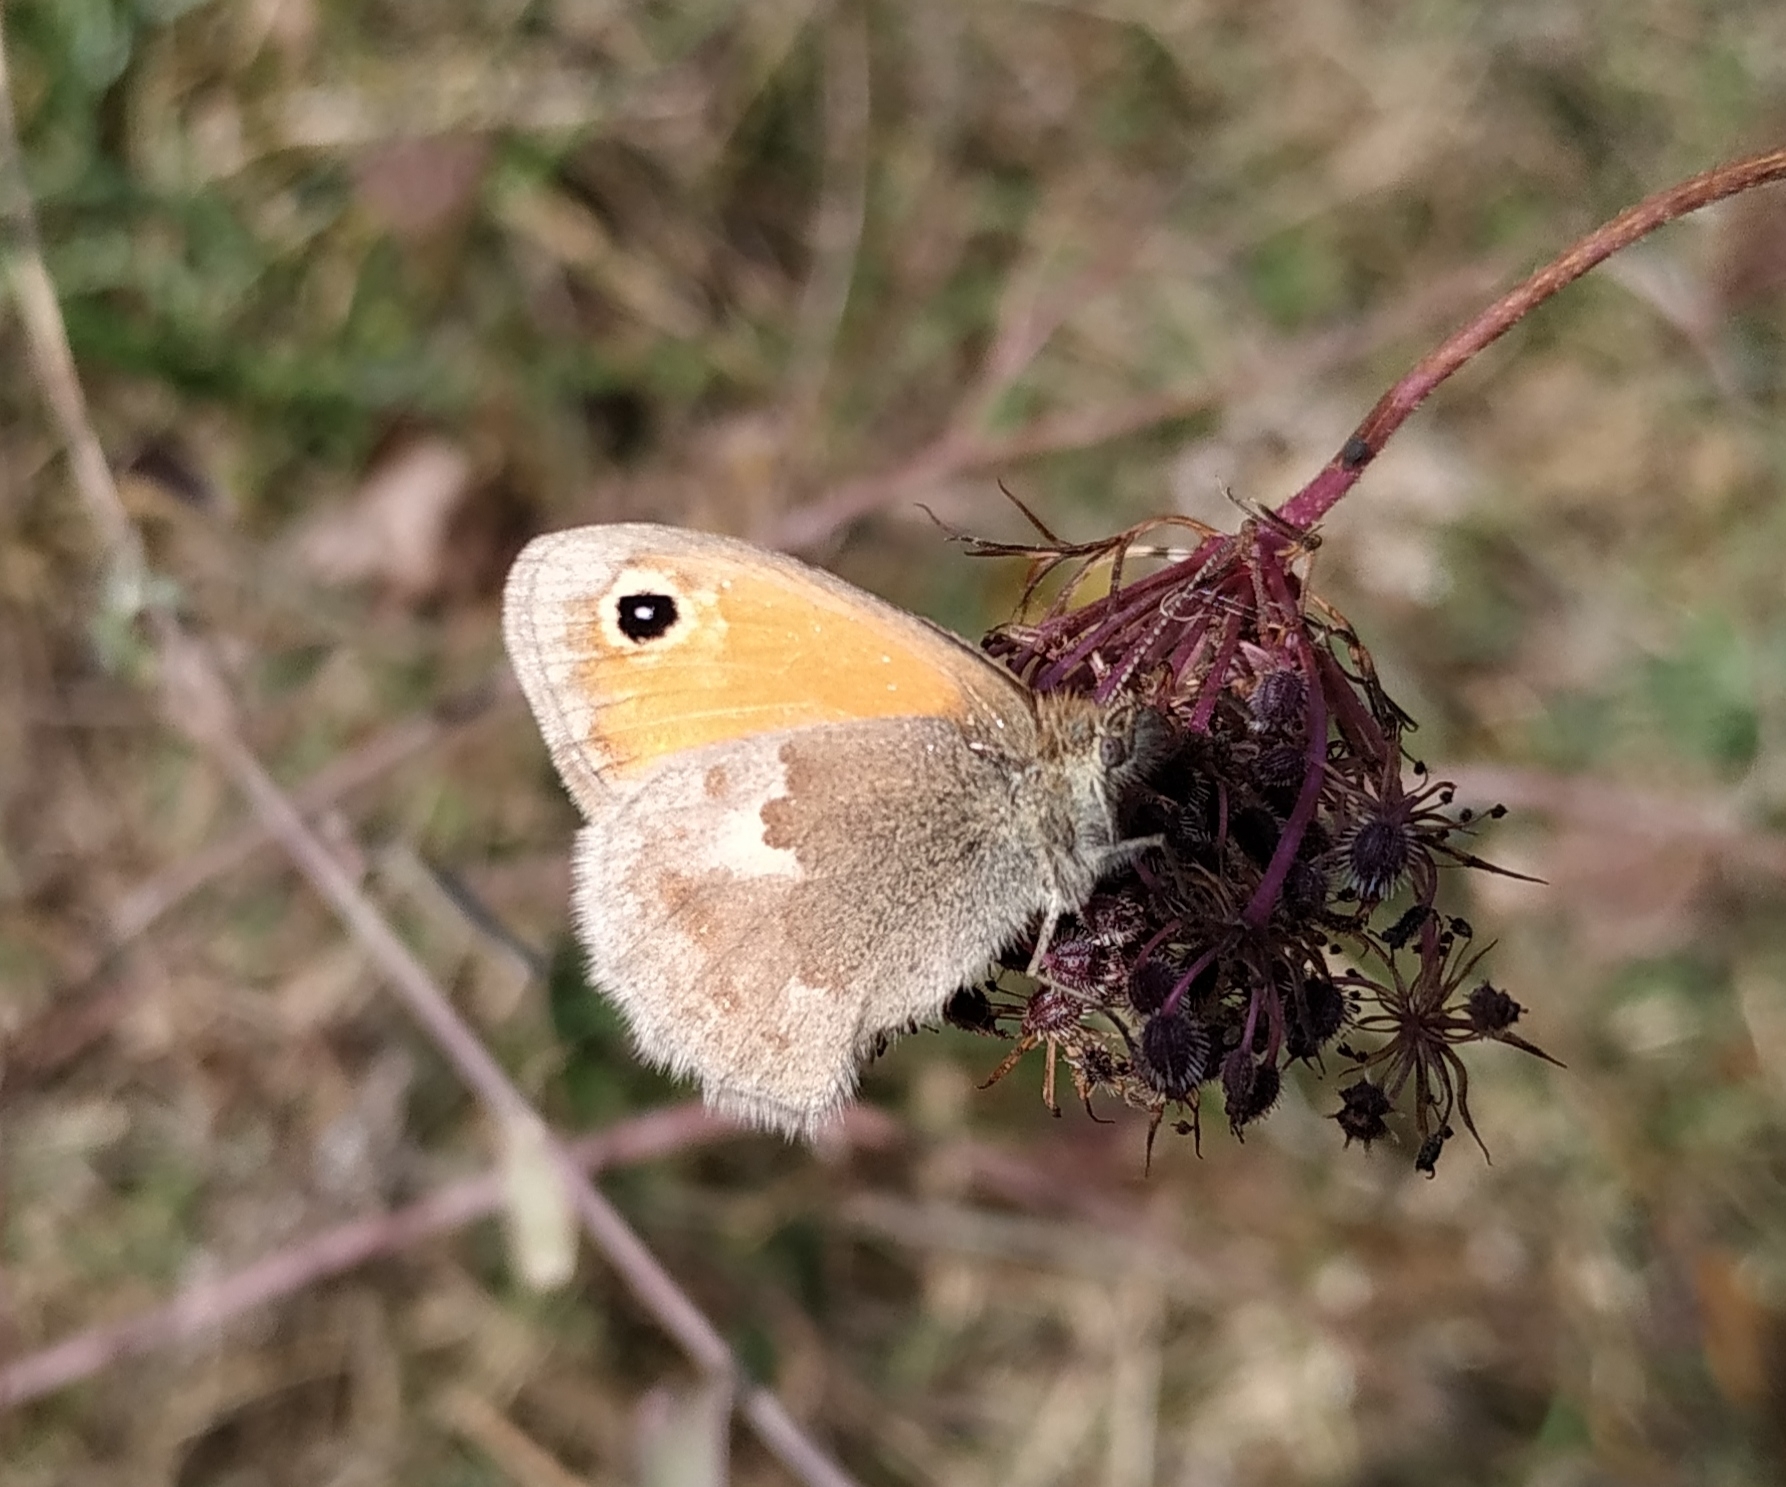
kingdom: Animalia
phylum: Arthropoda
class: Insecta
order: Lepidoptera
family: Nymphalidae
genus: Coenonympha
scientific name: Coenonympha pamphilus
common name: Small heath
